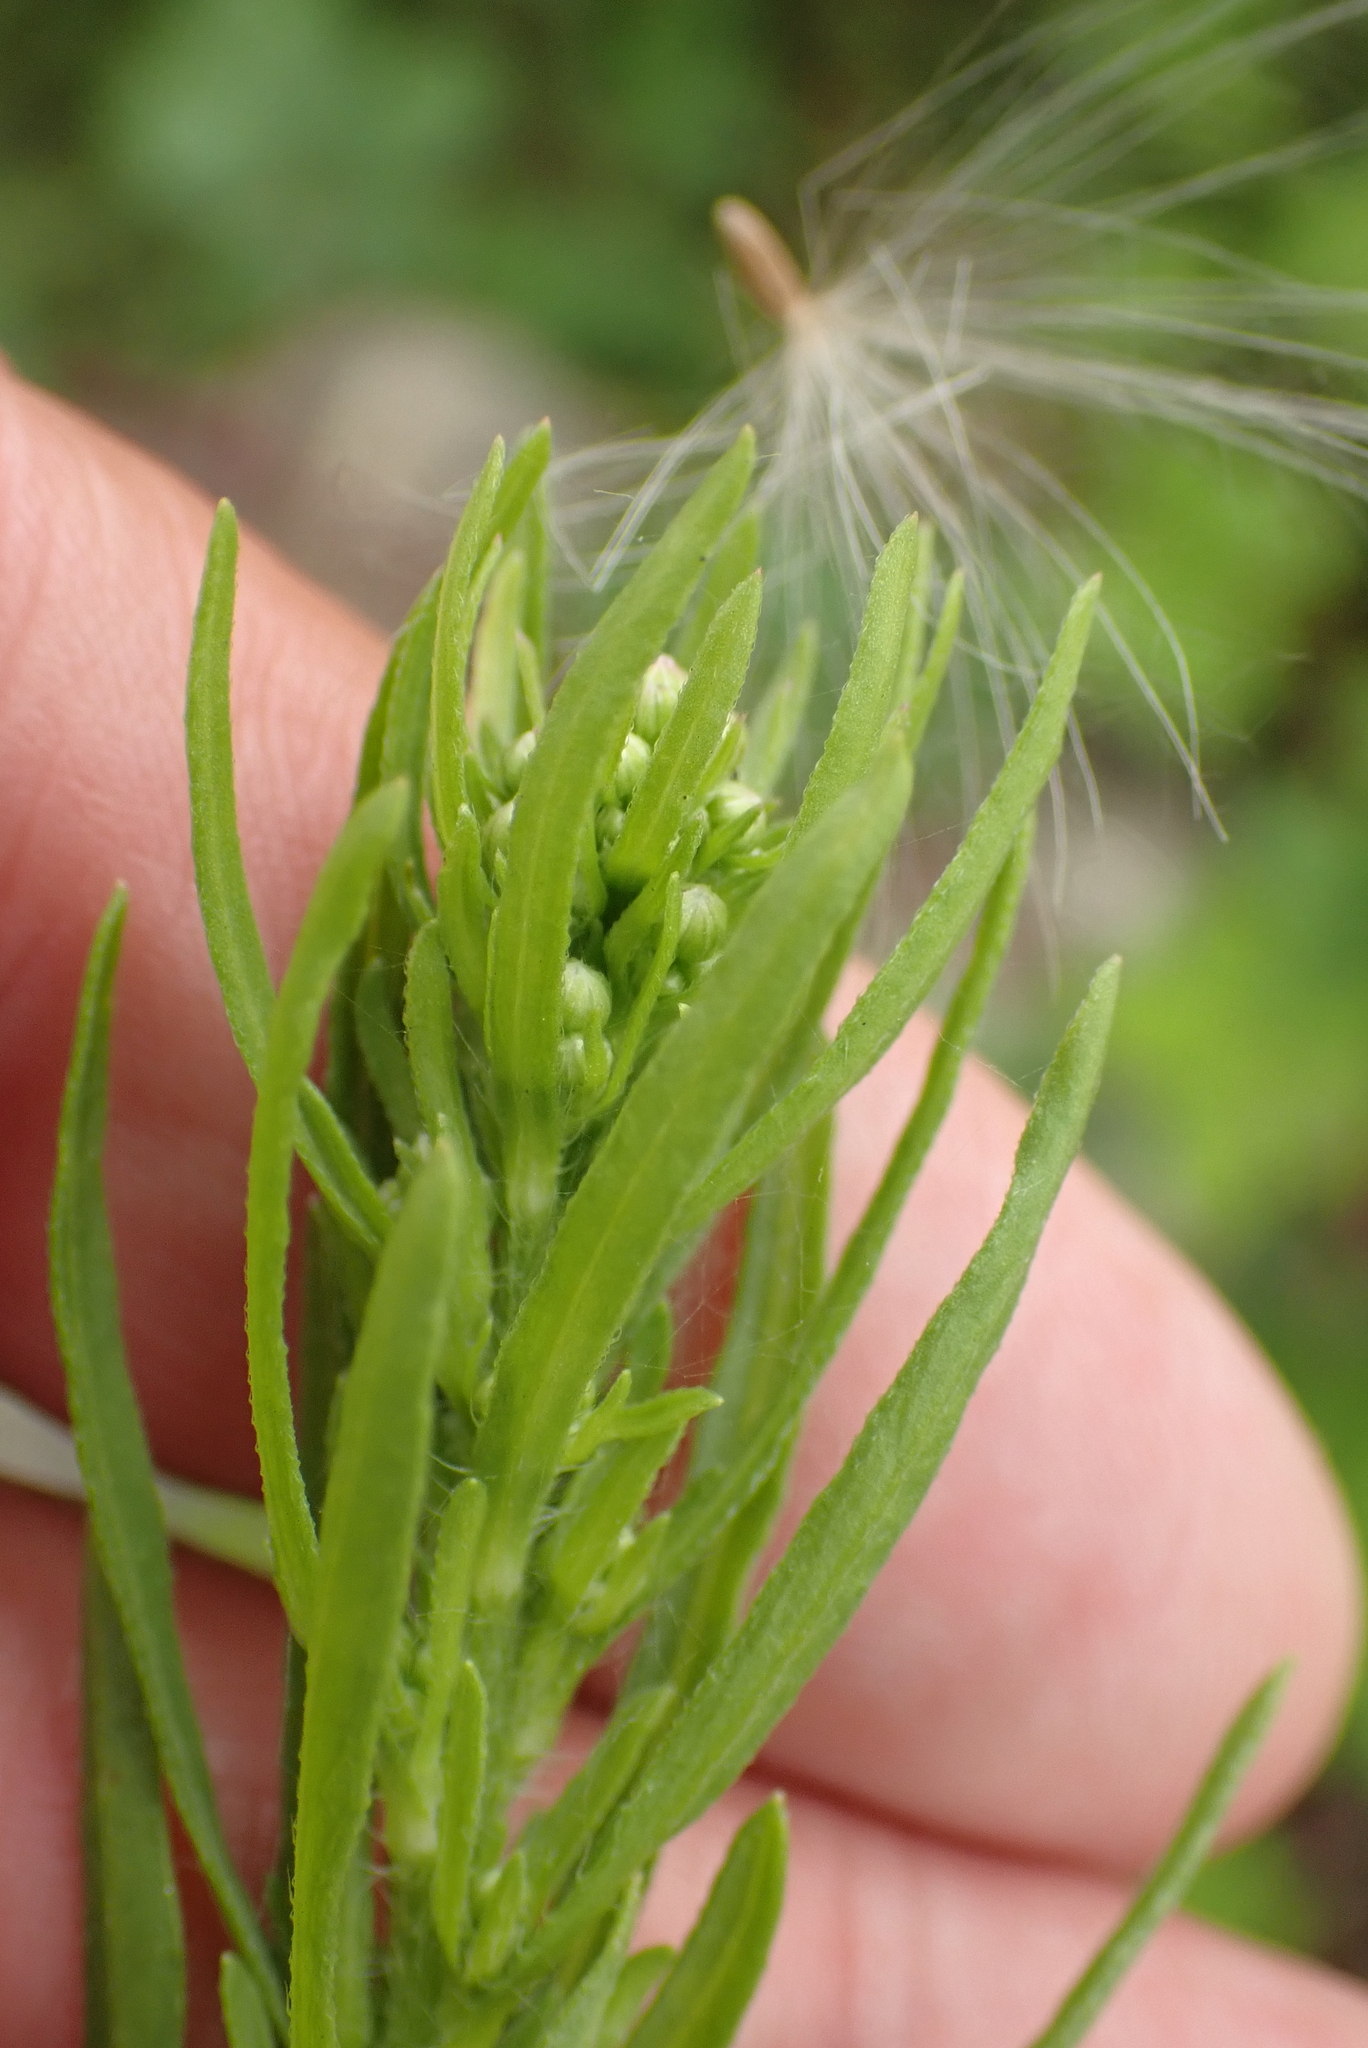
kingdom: Plantae
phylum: Tracheophyta
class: Magnoliopsida
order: Asterales
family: Asteraceae
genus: Erigeron
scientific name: Erigeron canadensis
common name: Canadian fleabane
